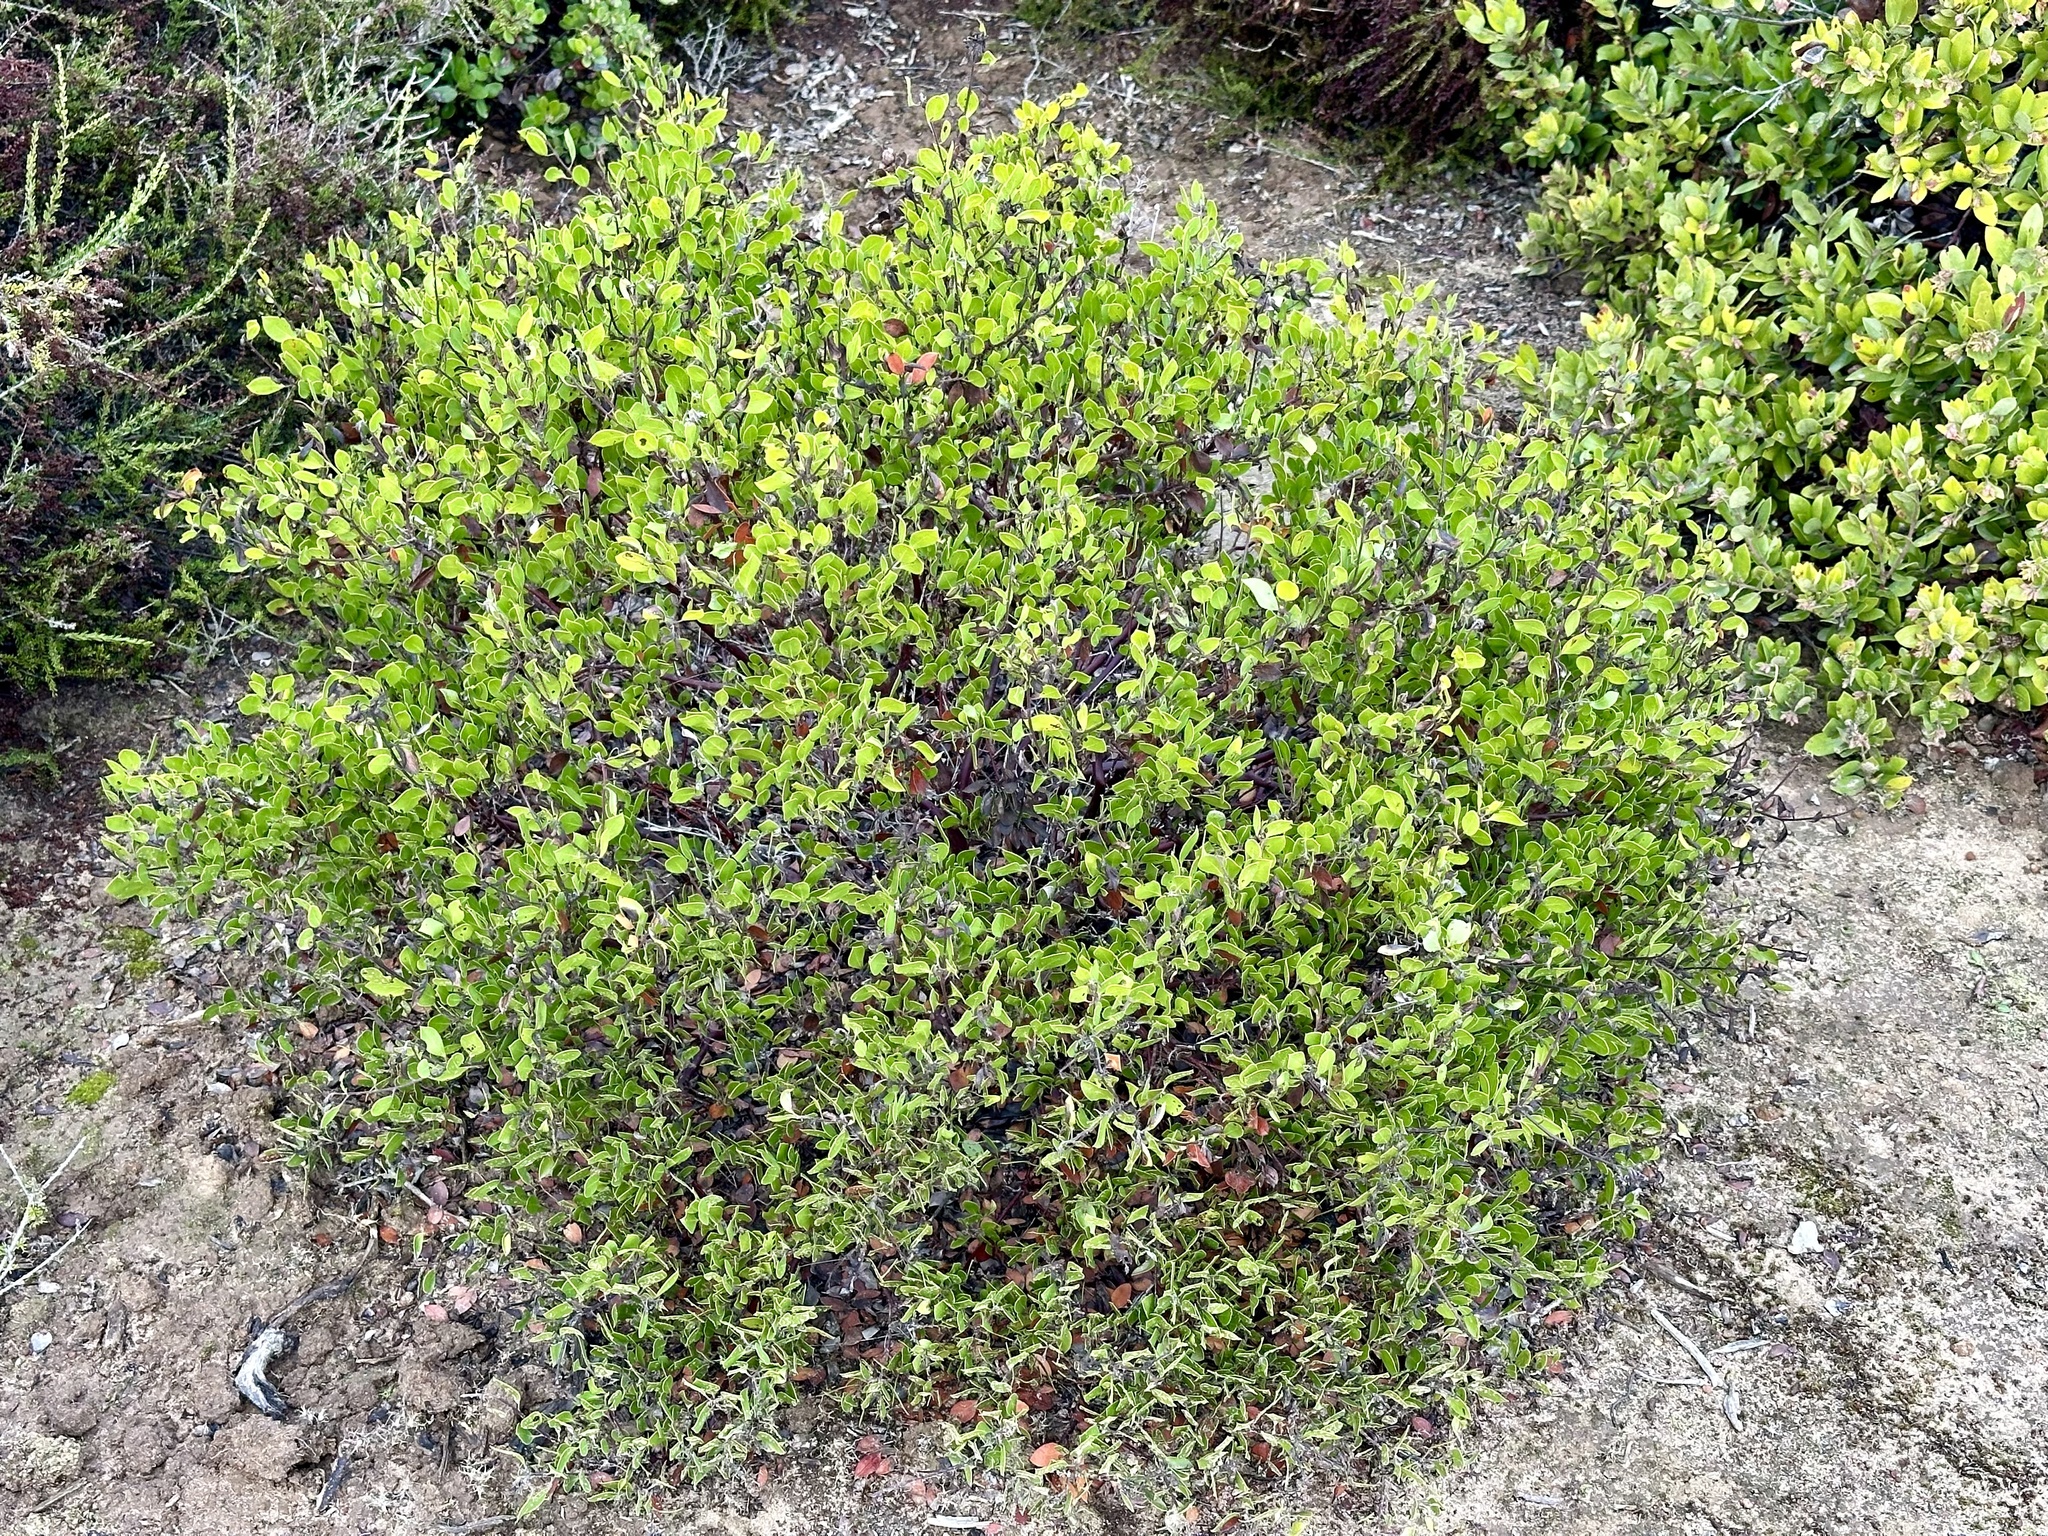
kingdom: Plantae
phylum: Tracheophyta
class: Magnoliopsida
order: Ericales
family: Ericaceae
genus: Arctostaphylos
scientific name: Arctostaphylos hookeri
